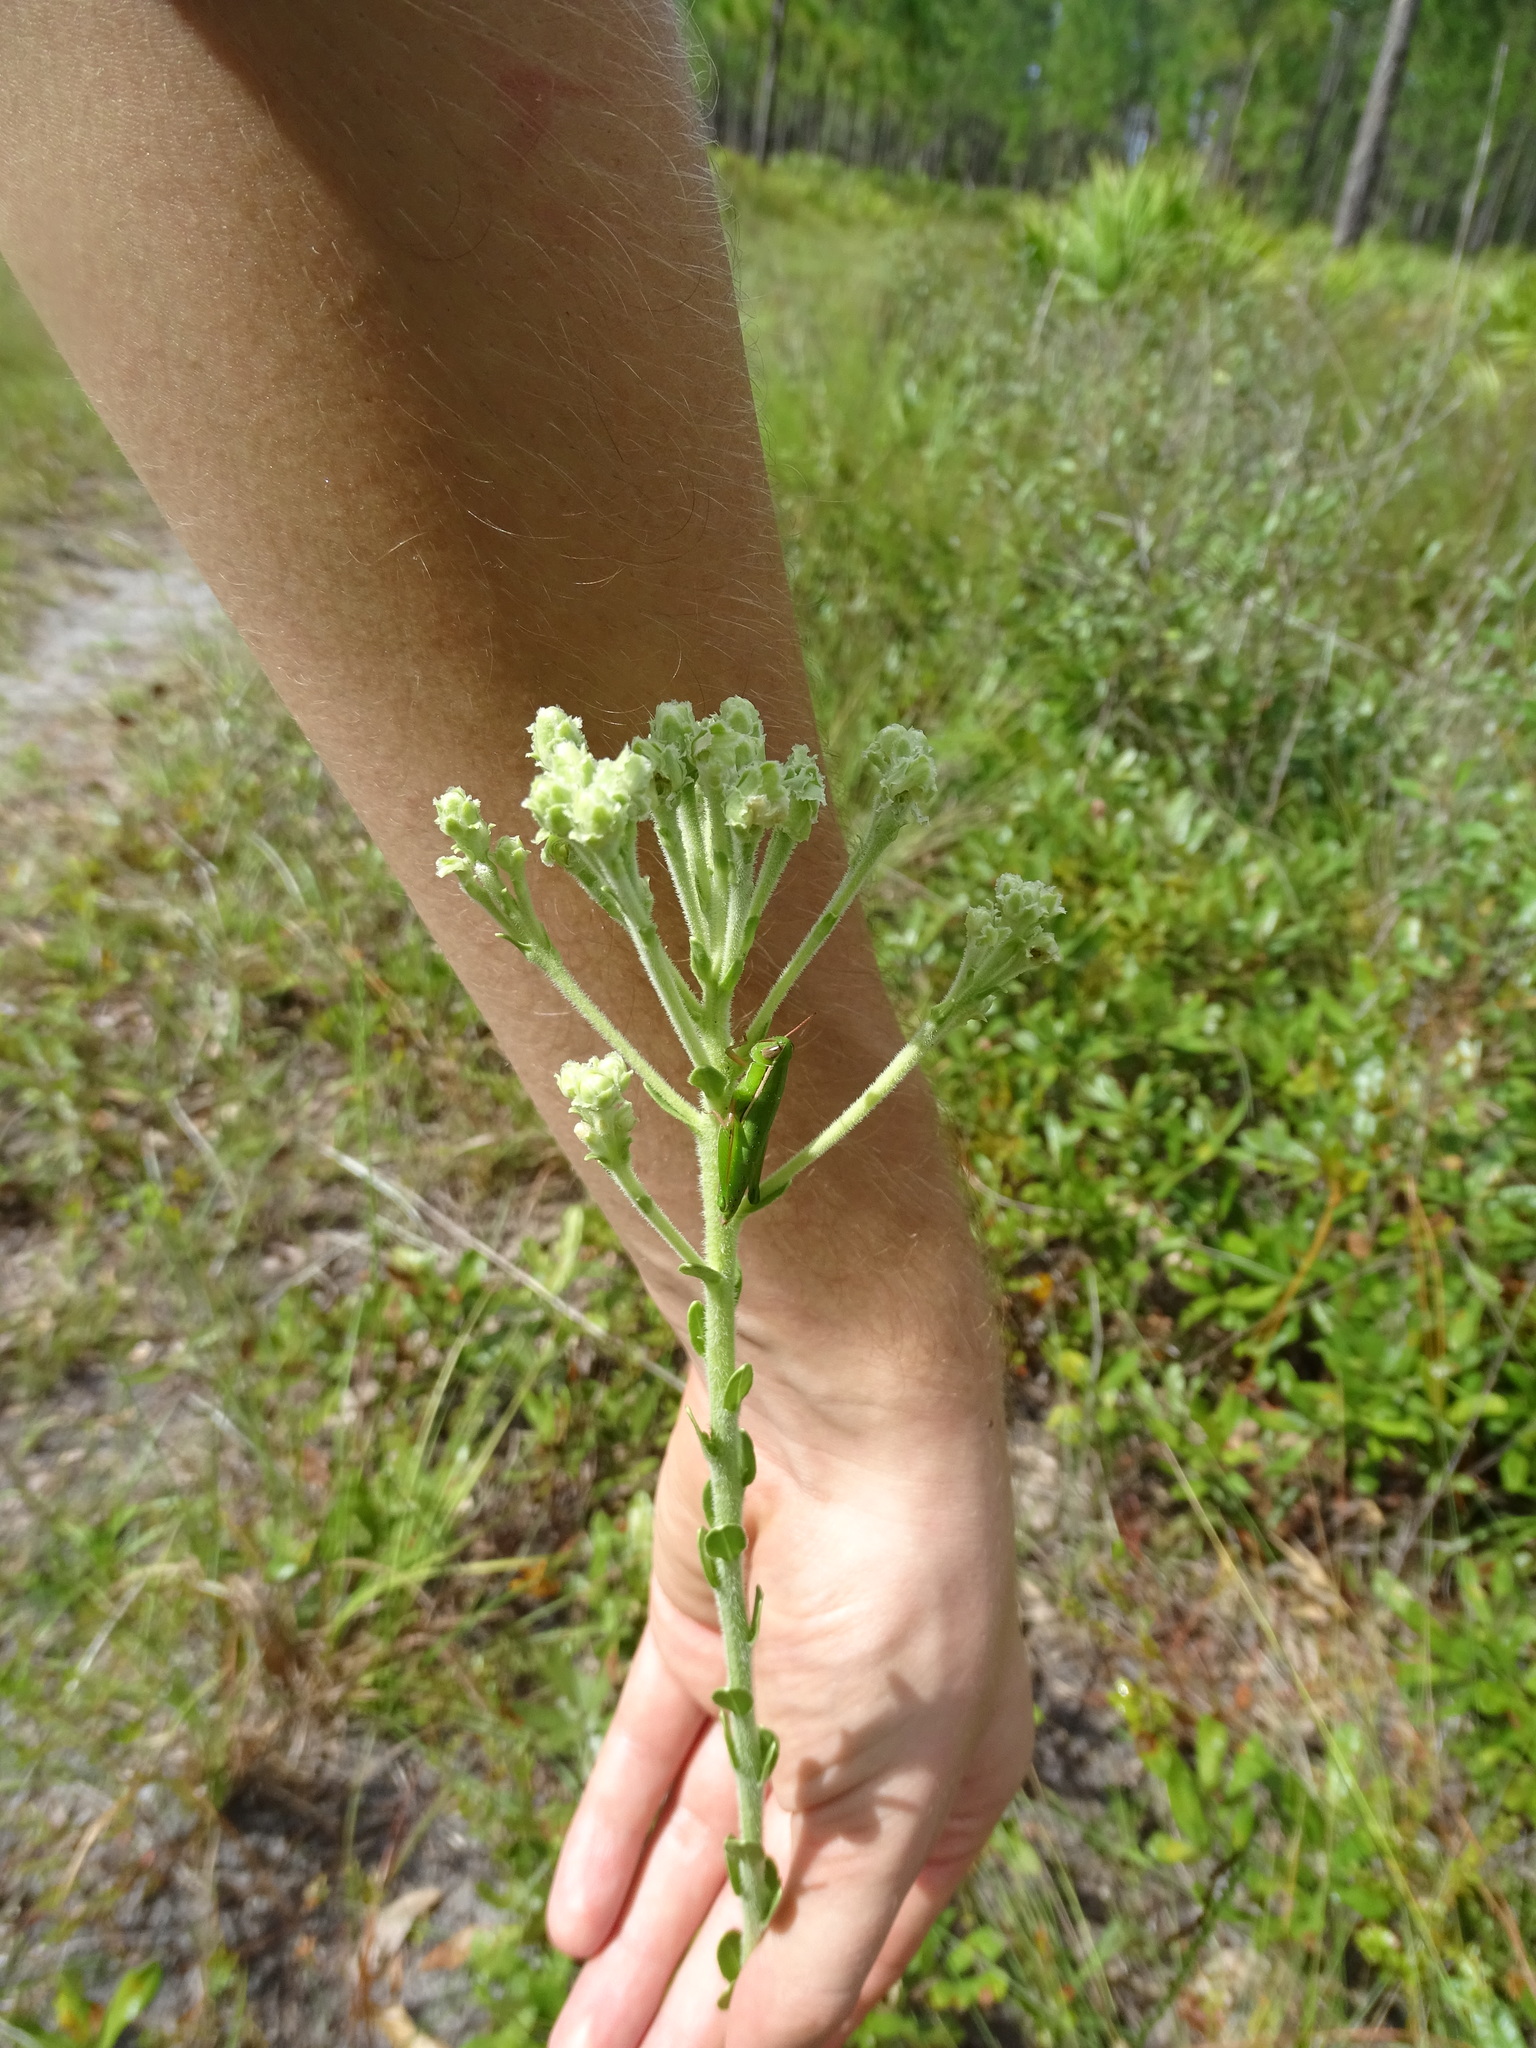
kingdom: Plantae
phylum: Tracheophyta
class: Magnoliopsida
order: Asterales
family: Asteraceae
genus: Carphephorus
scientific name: Carphephorus corymbosus
